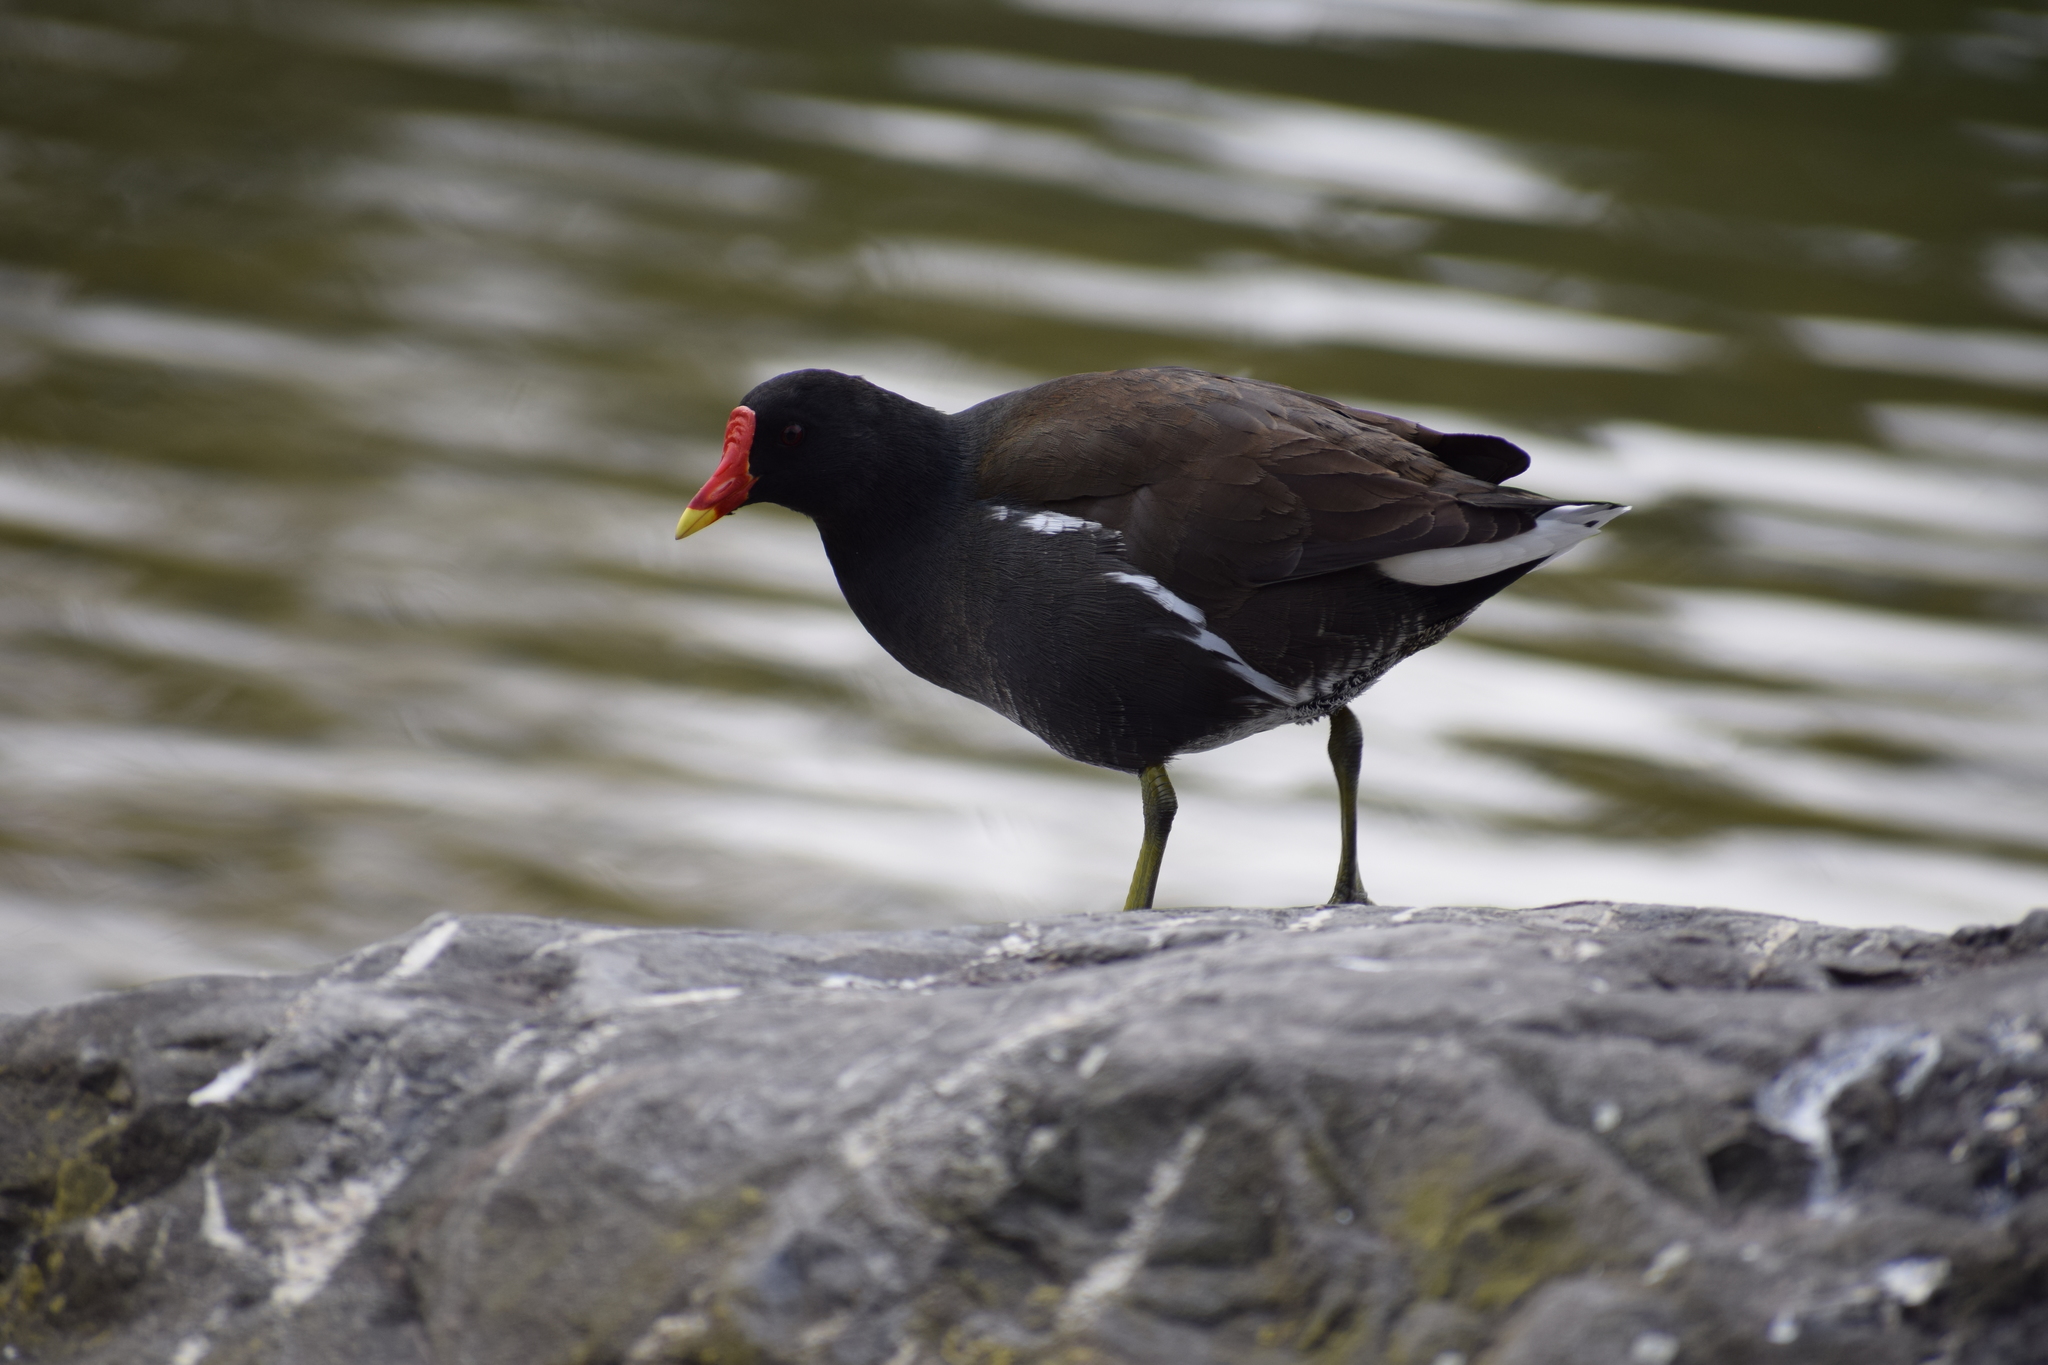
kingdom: Animalia
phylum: Chordata
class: Aves
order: Gruiformes
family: Rallidae
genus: Gallinula
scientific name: Gallinula chloropus
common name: Common moorhen
